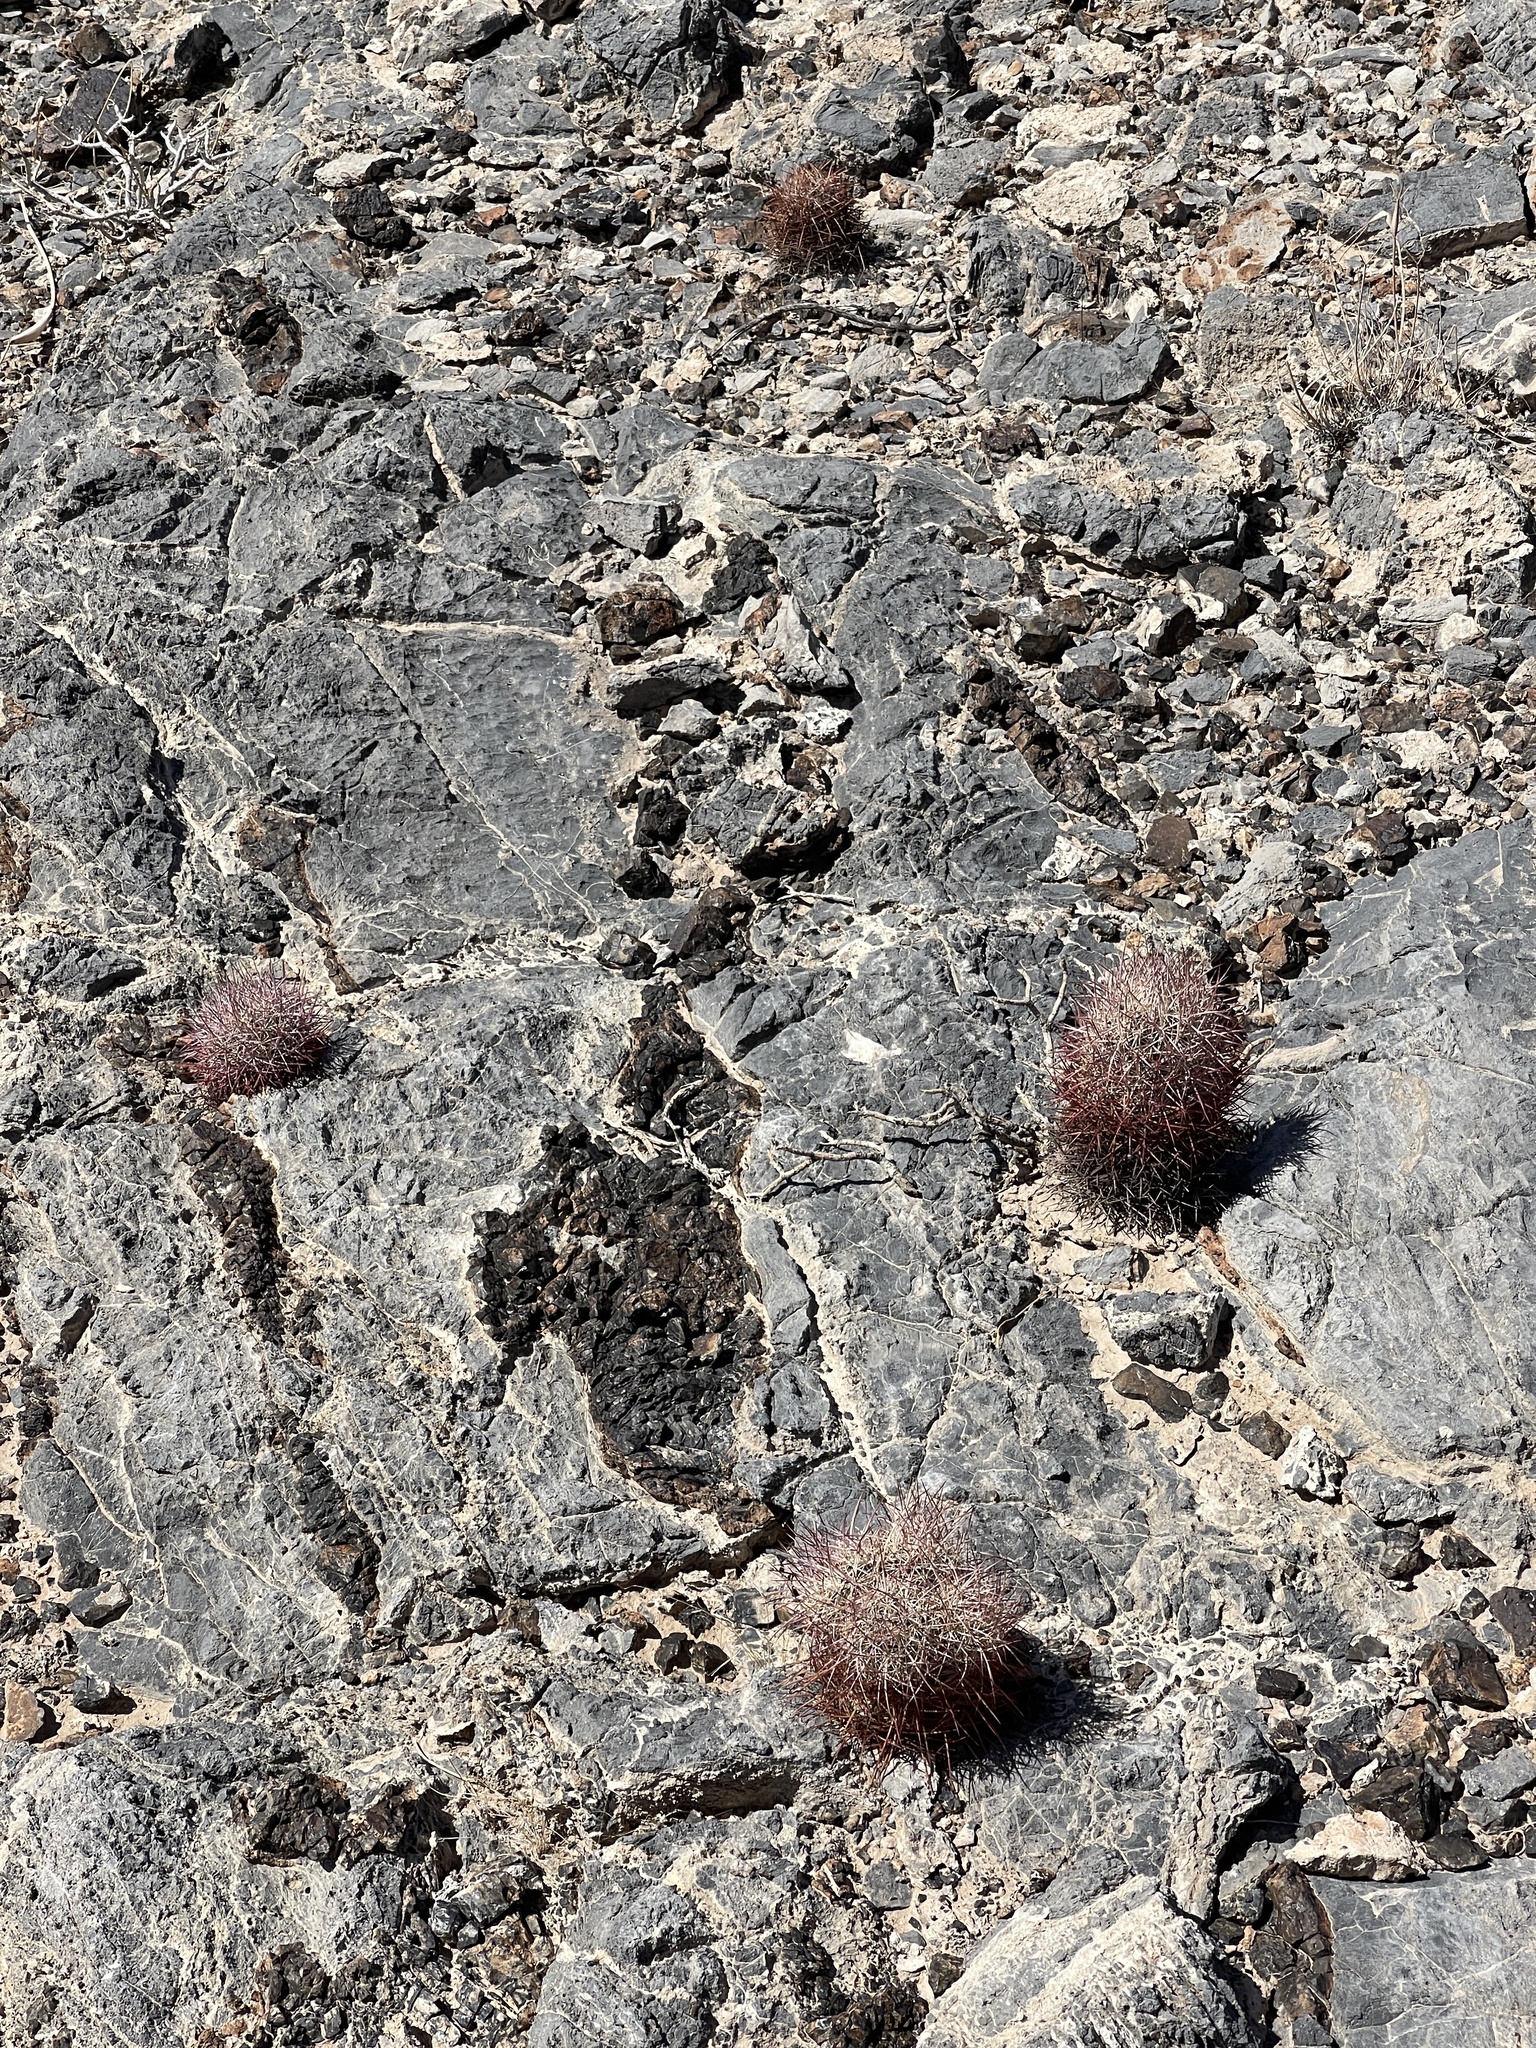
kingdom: Plantae
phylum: Tracheophyta
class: Magnoliopsida
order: Caryophyllales
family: Cactaceae
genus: Sclerocactus
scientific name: Sclerocactus johnsonii
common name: Eight-spine fishhook cactus
